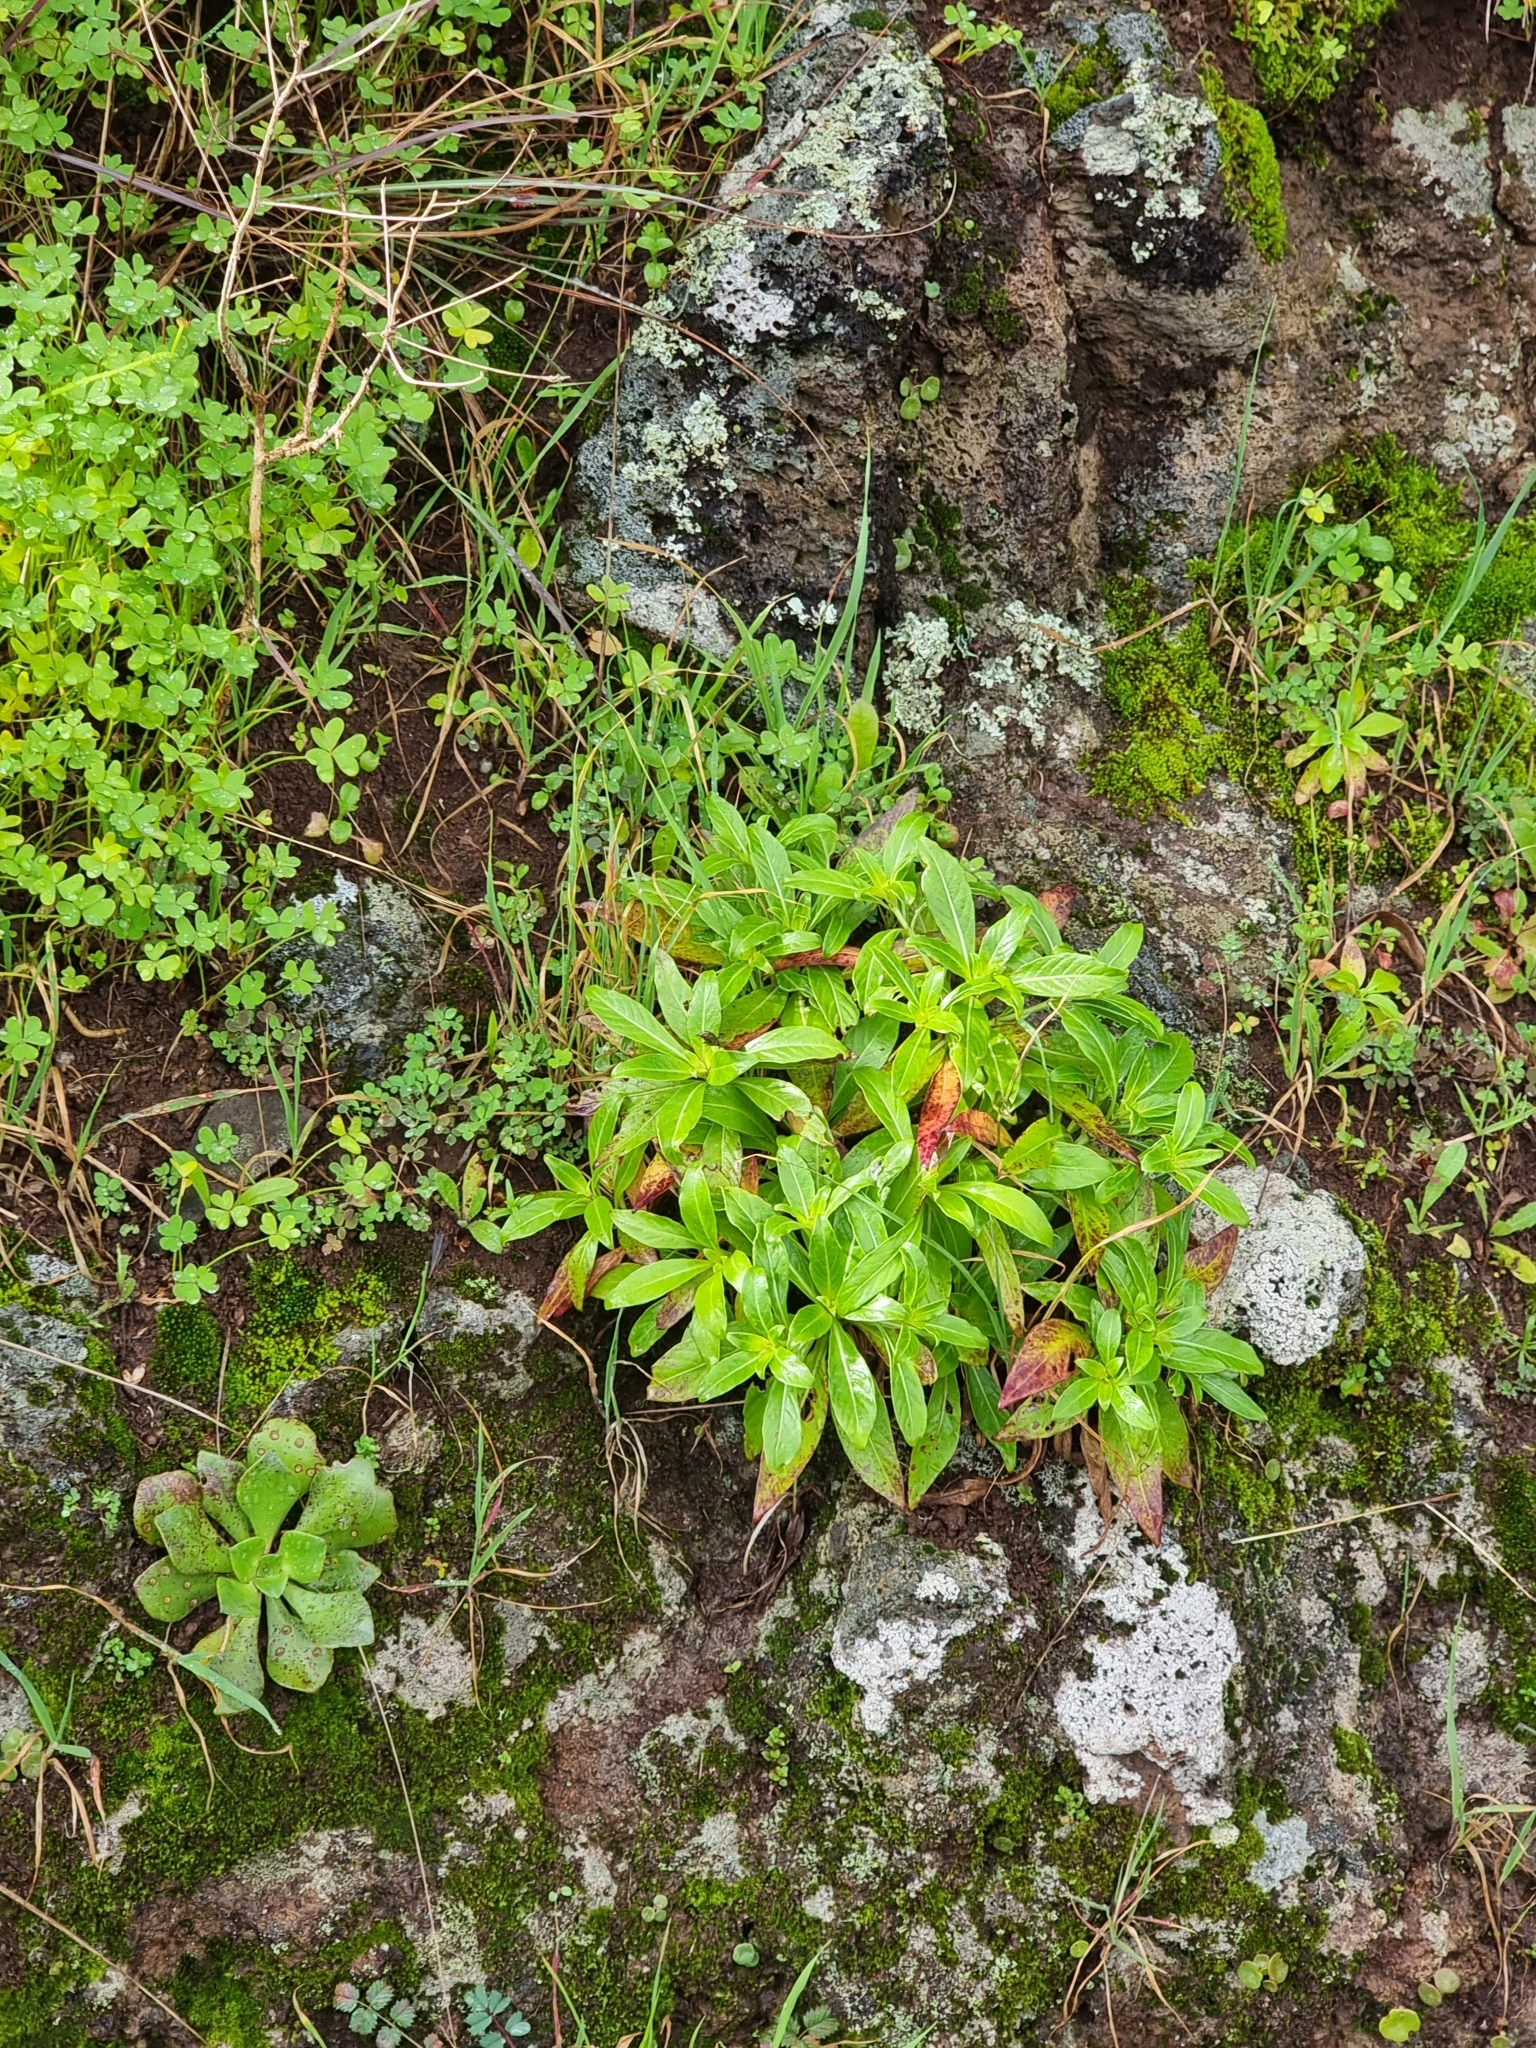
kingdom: Plantae
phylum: Tracheophyta
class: Magnoliopsida
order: Gentianales
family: Rubiaceae
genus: Phyllis
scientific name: Phyllis nobla
